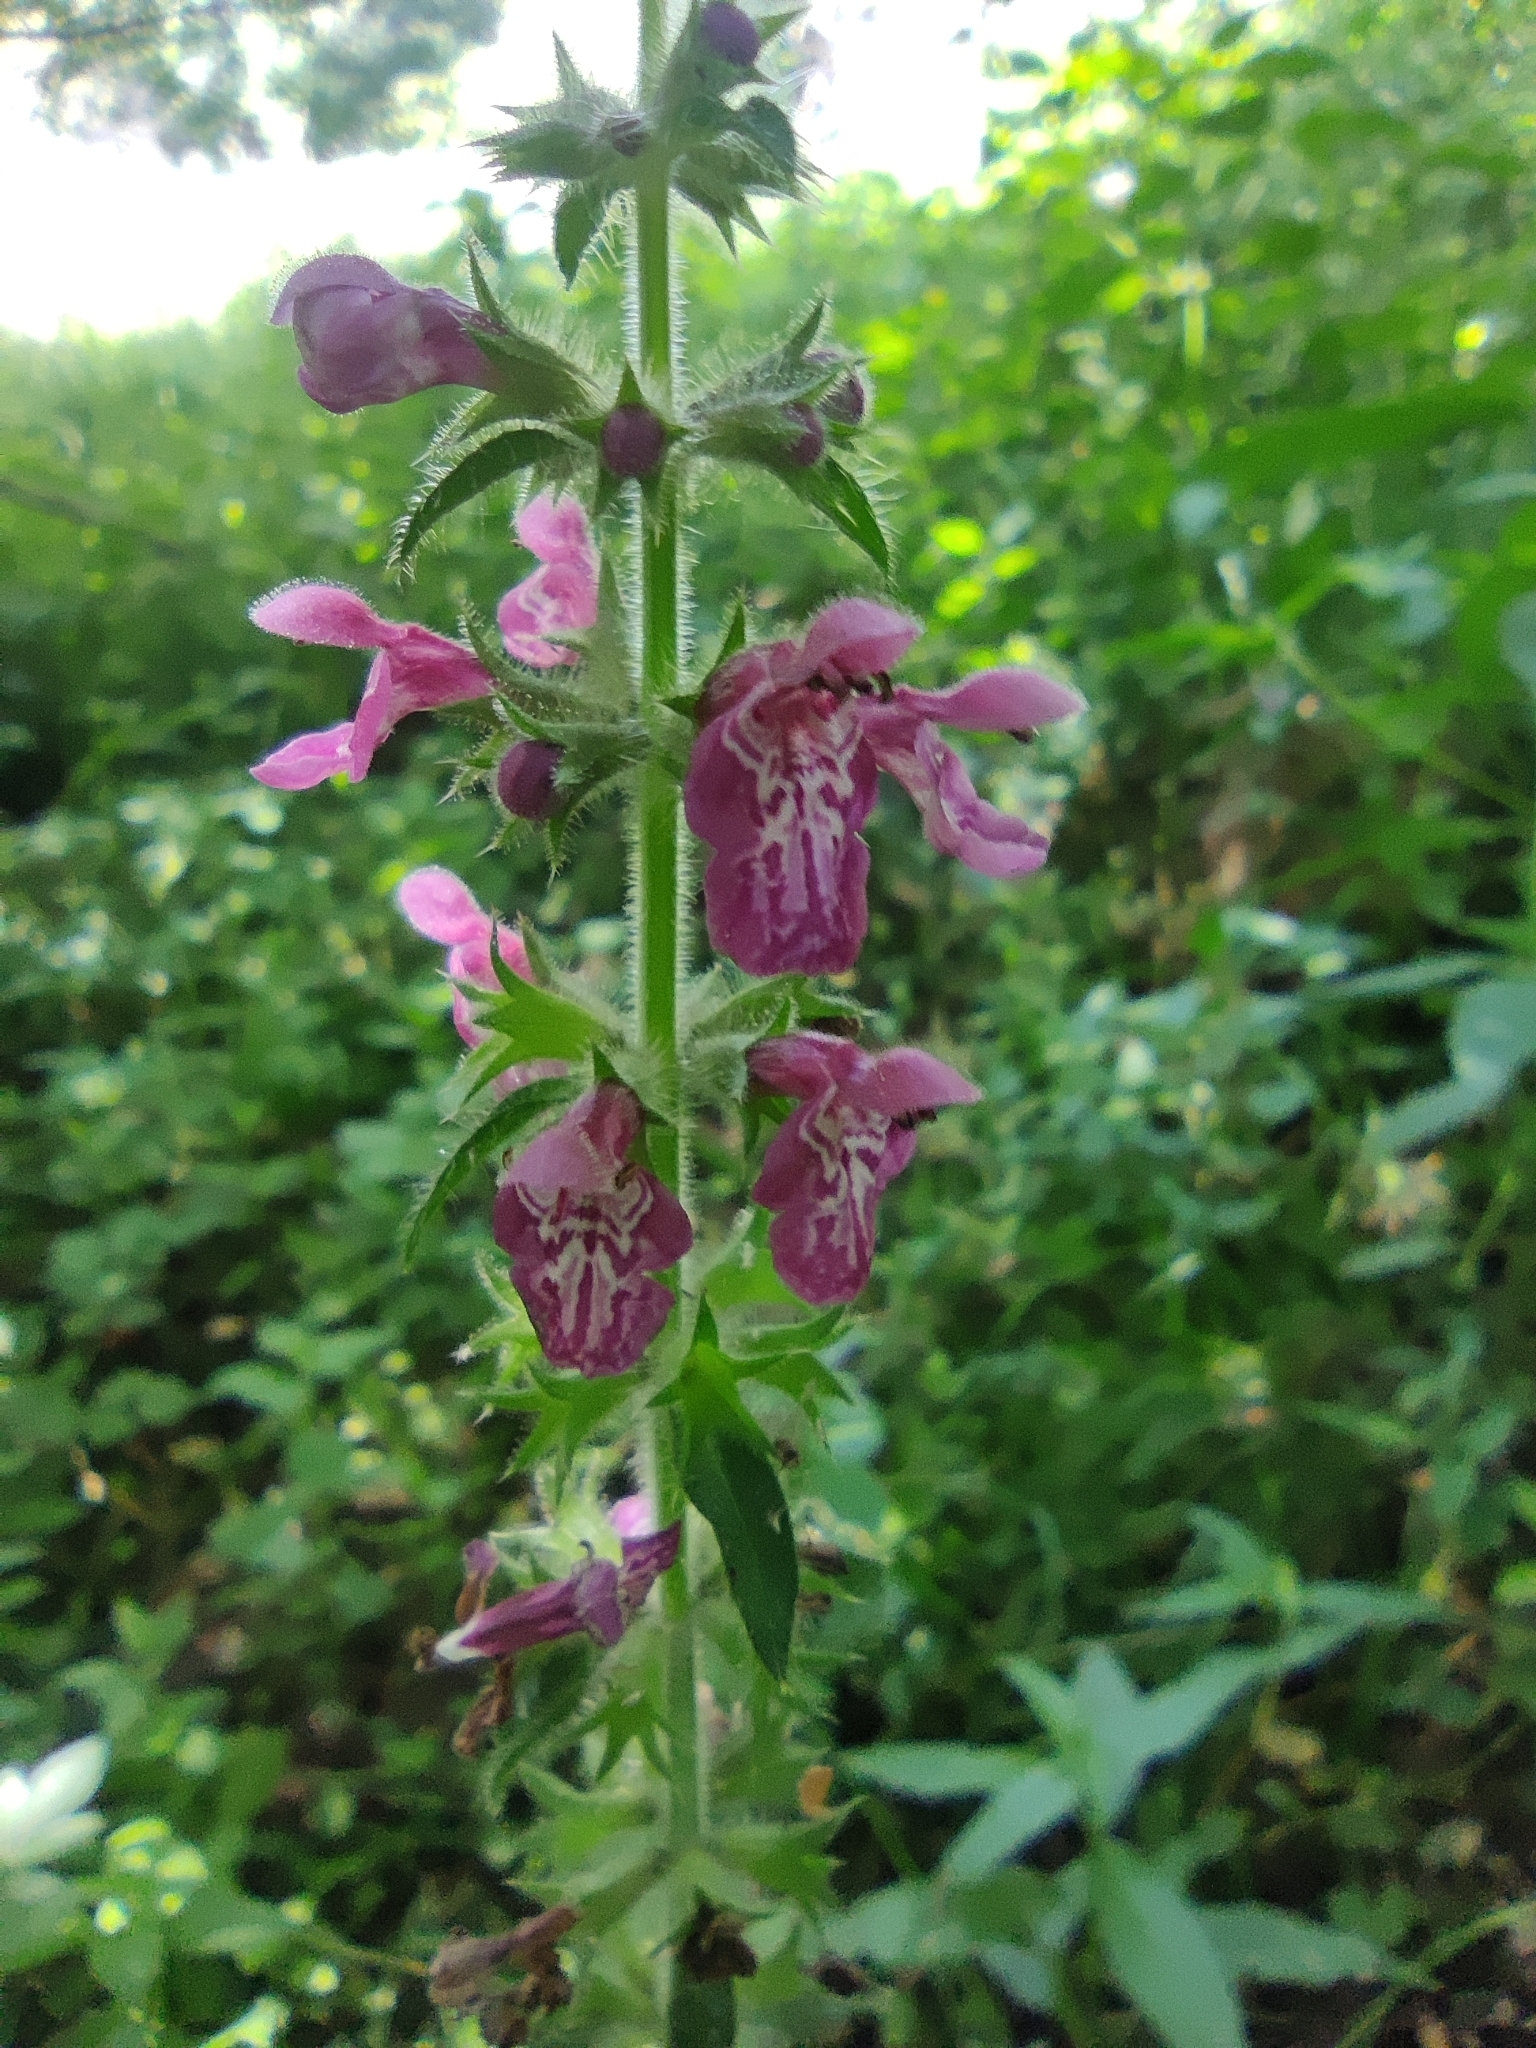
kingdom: Plantae
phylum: Tracheophyta
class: Magnoliopsida
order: Lamiales
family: Lamiaceae
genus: Stachys
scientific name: Stachys sylvatica
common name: Hedge woundwort
